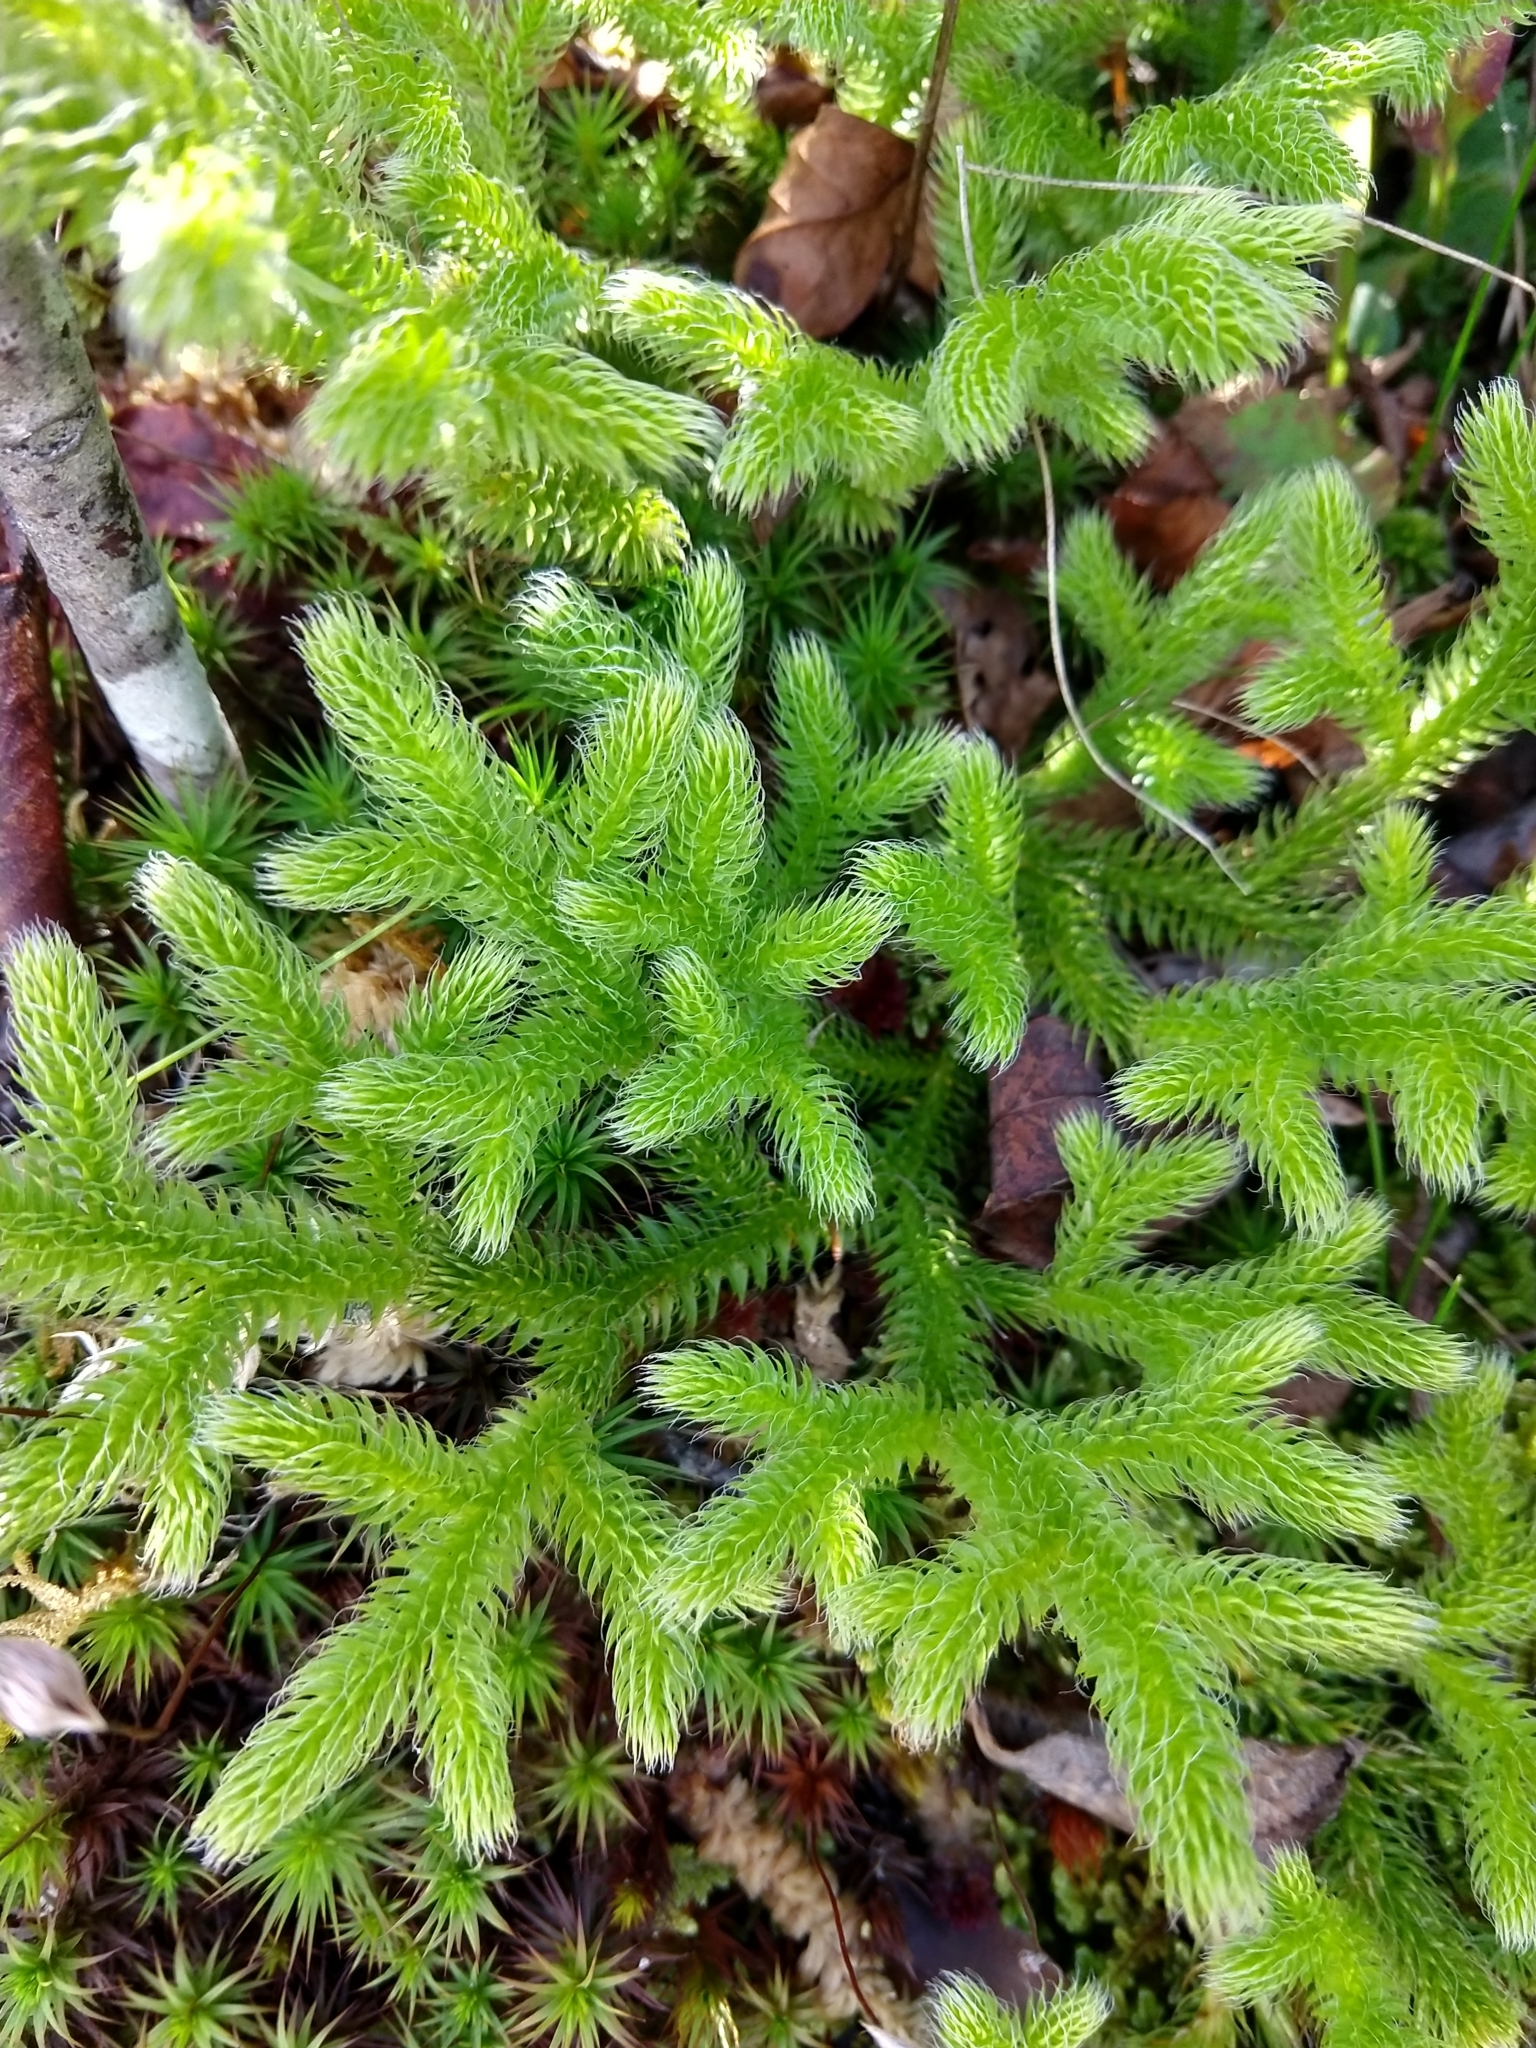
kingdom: Plantae
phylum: Tracheophyta
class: Lycopodiopsida
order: Lycopodiales
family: Lycopodiaceae
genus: Lycopodium
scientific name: Lycopodium clavatum
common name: Stag's-horn clubmoss
